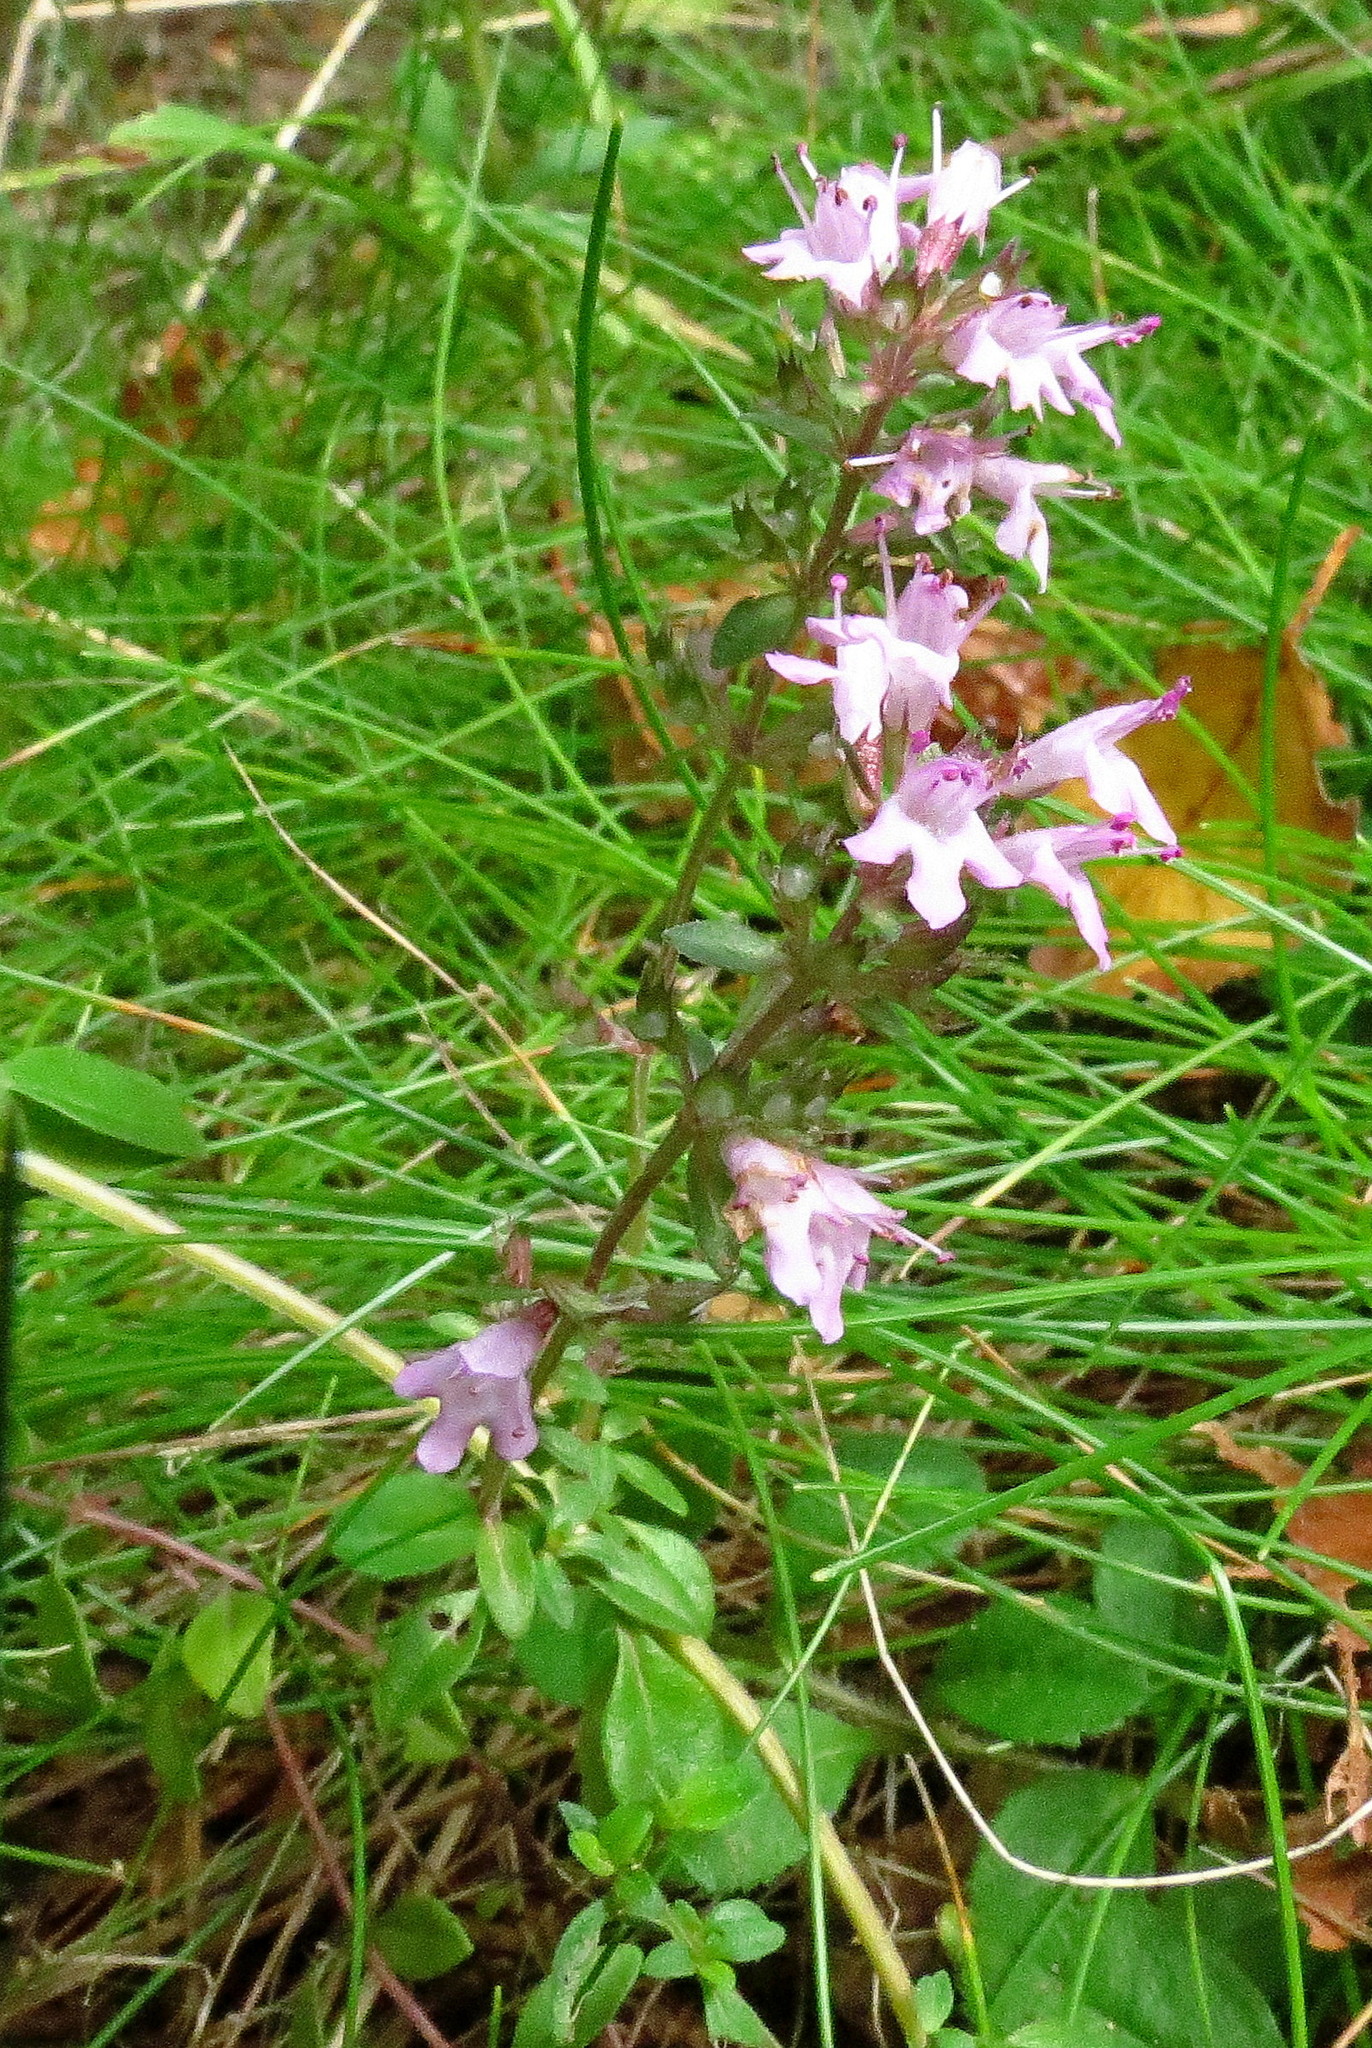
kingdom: Plantae
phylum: Tracheophyta
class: Magnoliopsida
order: Lamiales
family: Lamiaceae
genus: Thymus
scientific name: Thymus pulegioides
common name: Large thyme
